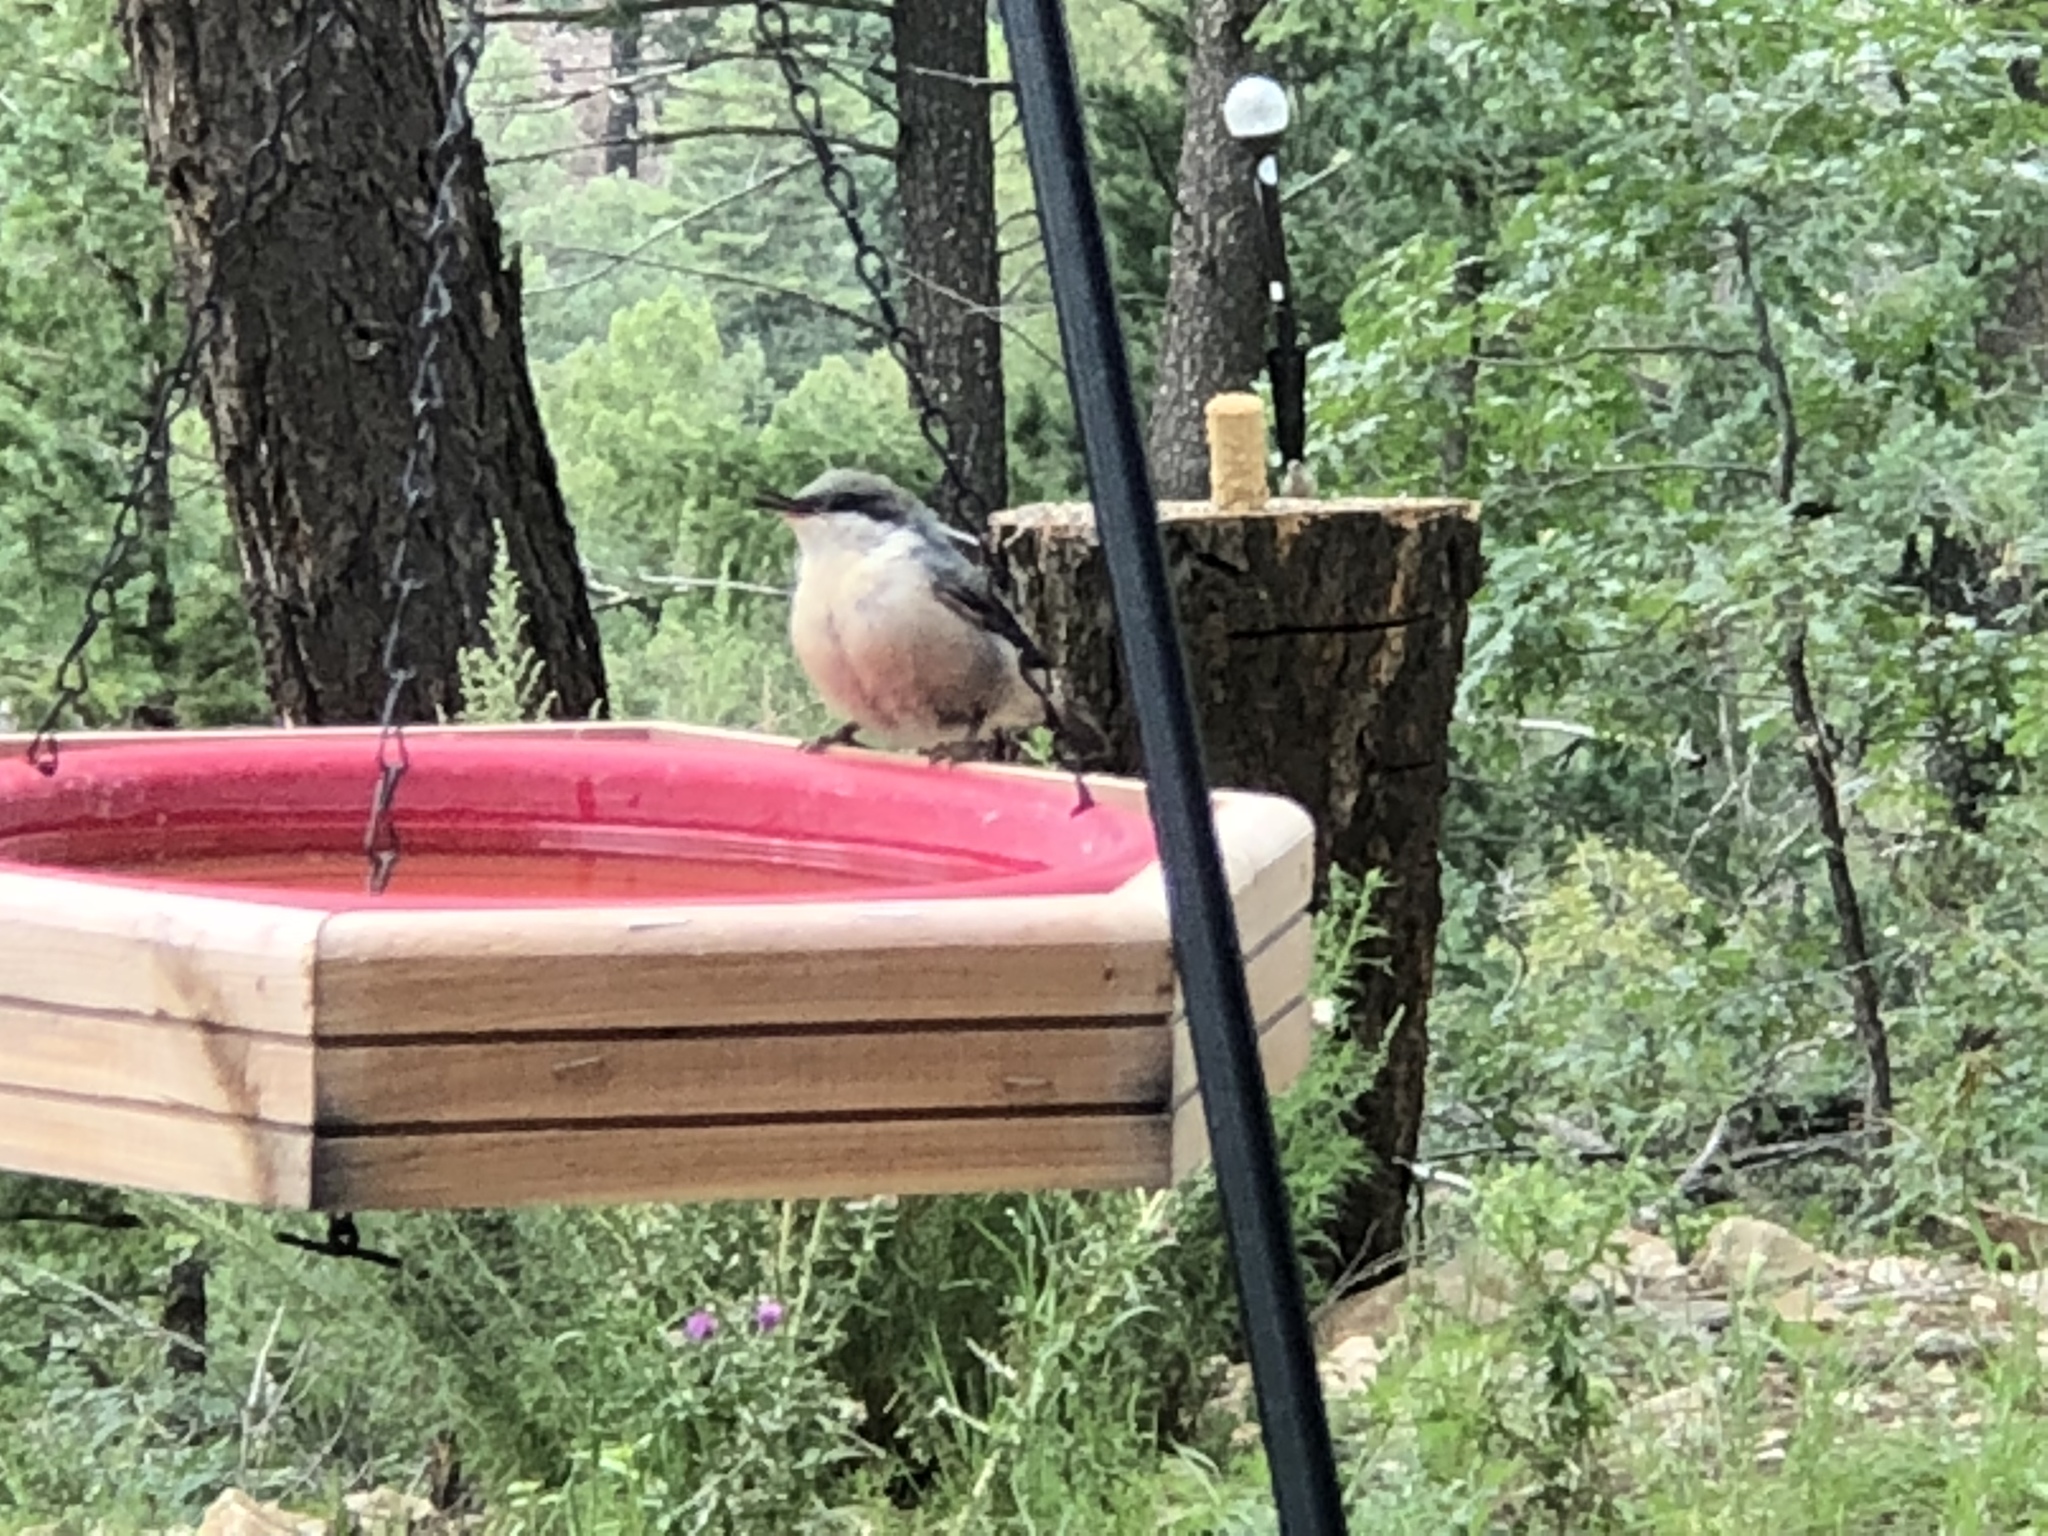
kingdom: Animalia
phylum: Chordata
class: Aves
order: Passeriformes
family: Sittidae
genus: Sitta
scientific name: Sitta pygmaea
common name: Pygmy nuthatch
